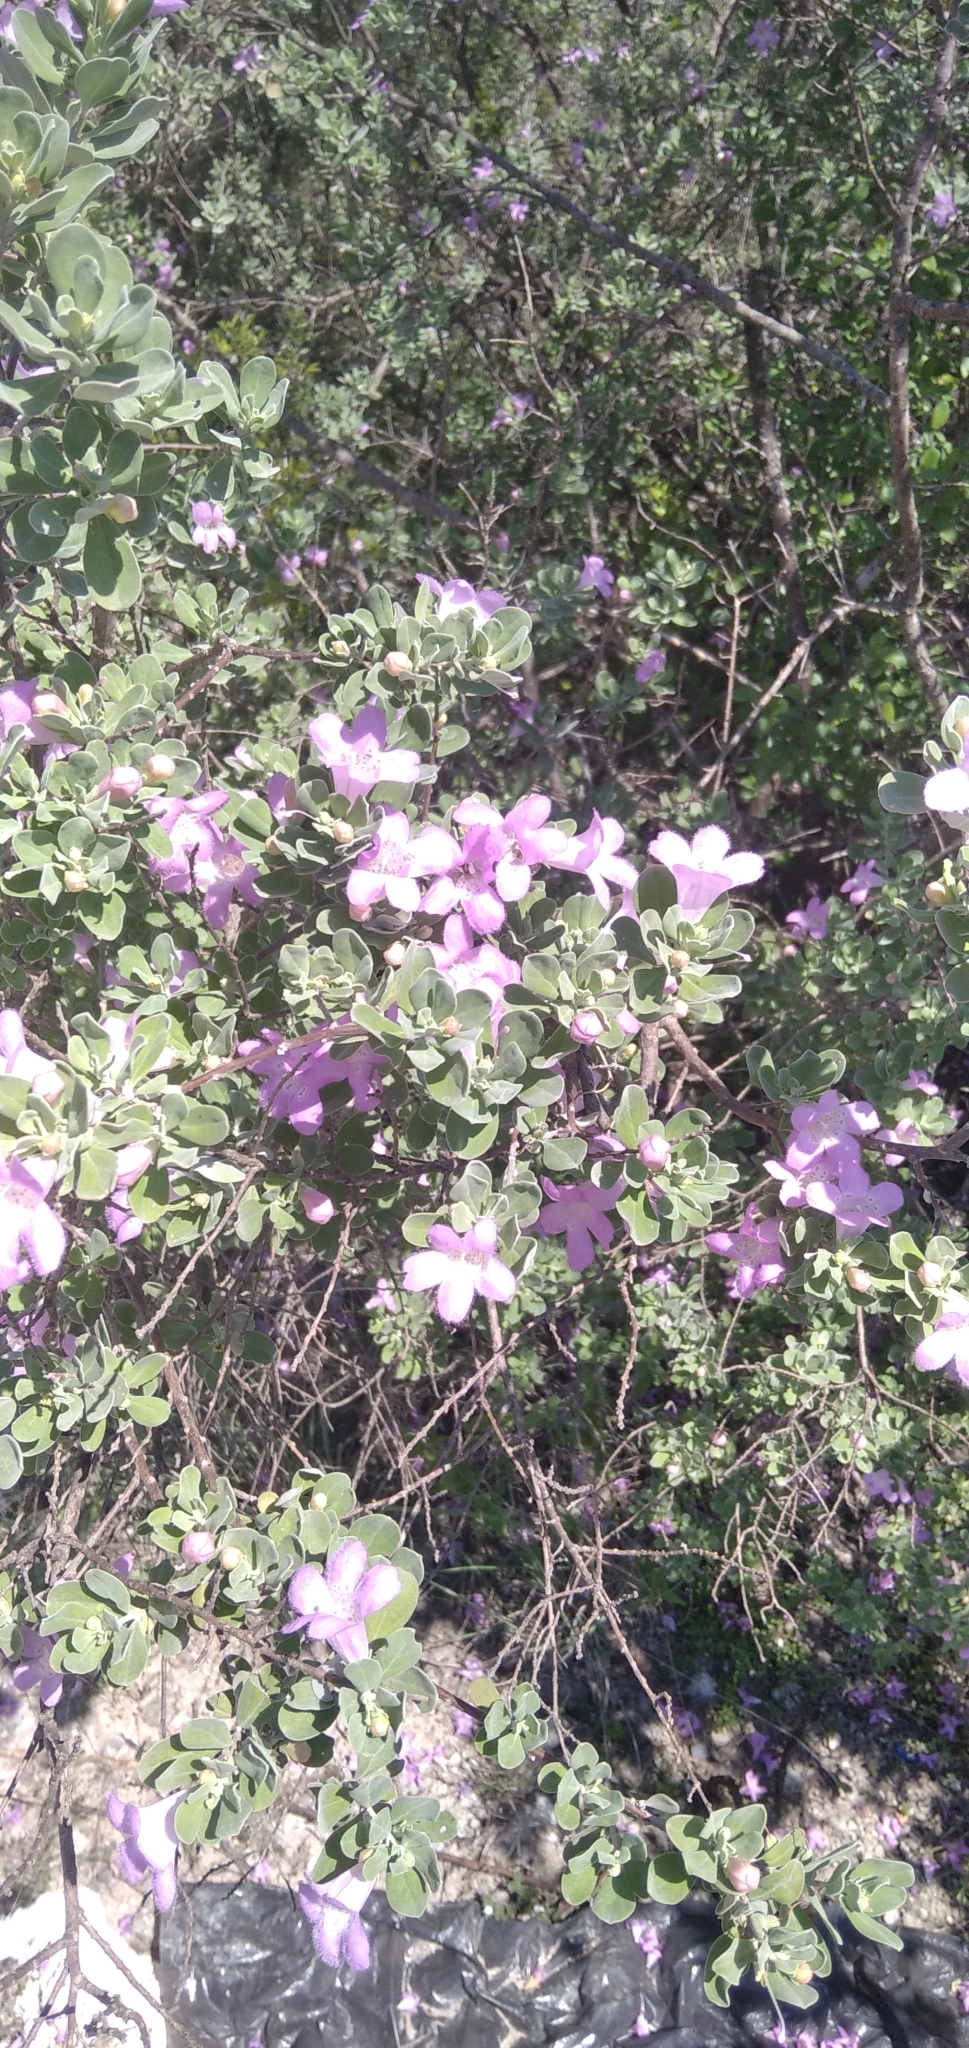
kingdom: Plantae
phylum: Tracheophyta
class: Magnoliopsida
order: Lamiales
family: Scrophulariaceae
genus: Leucophyllum
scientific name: Leucophyllum frutescens
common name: Texas silverleaf
